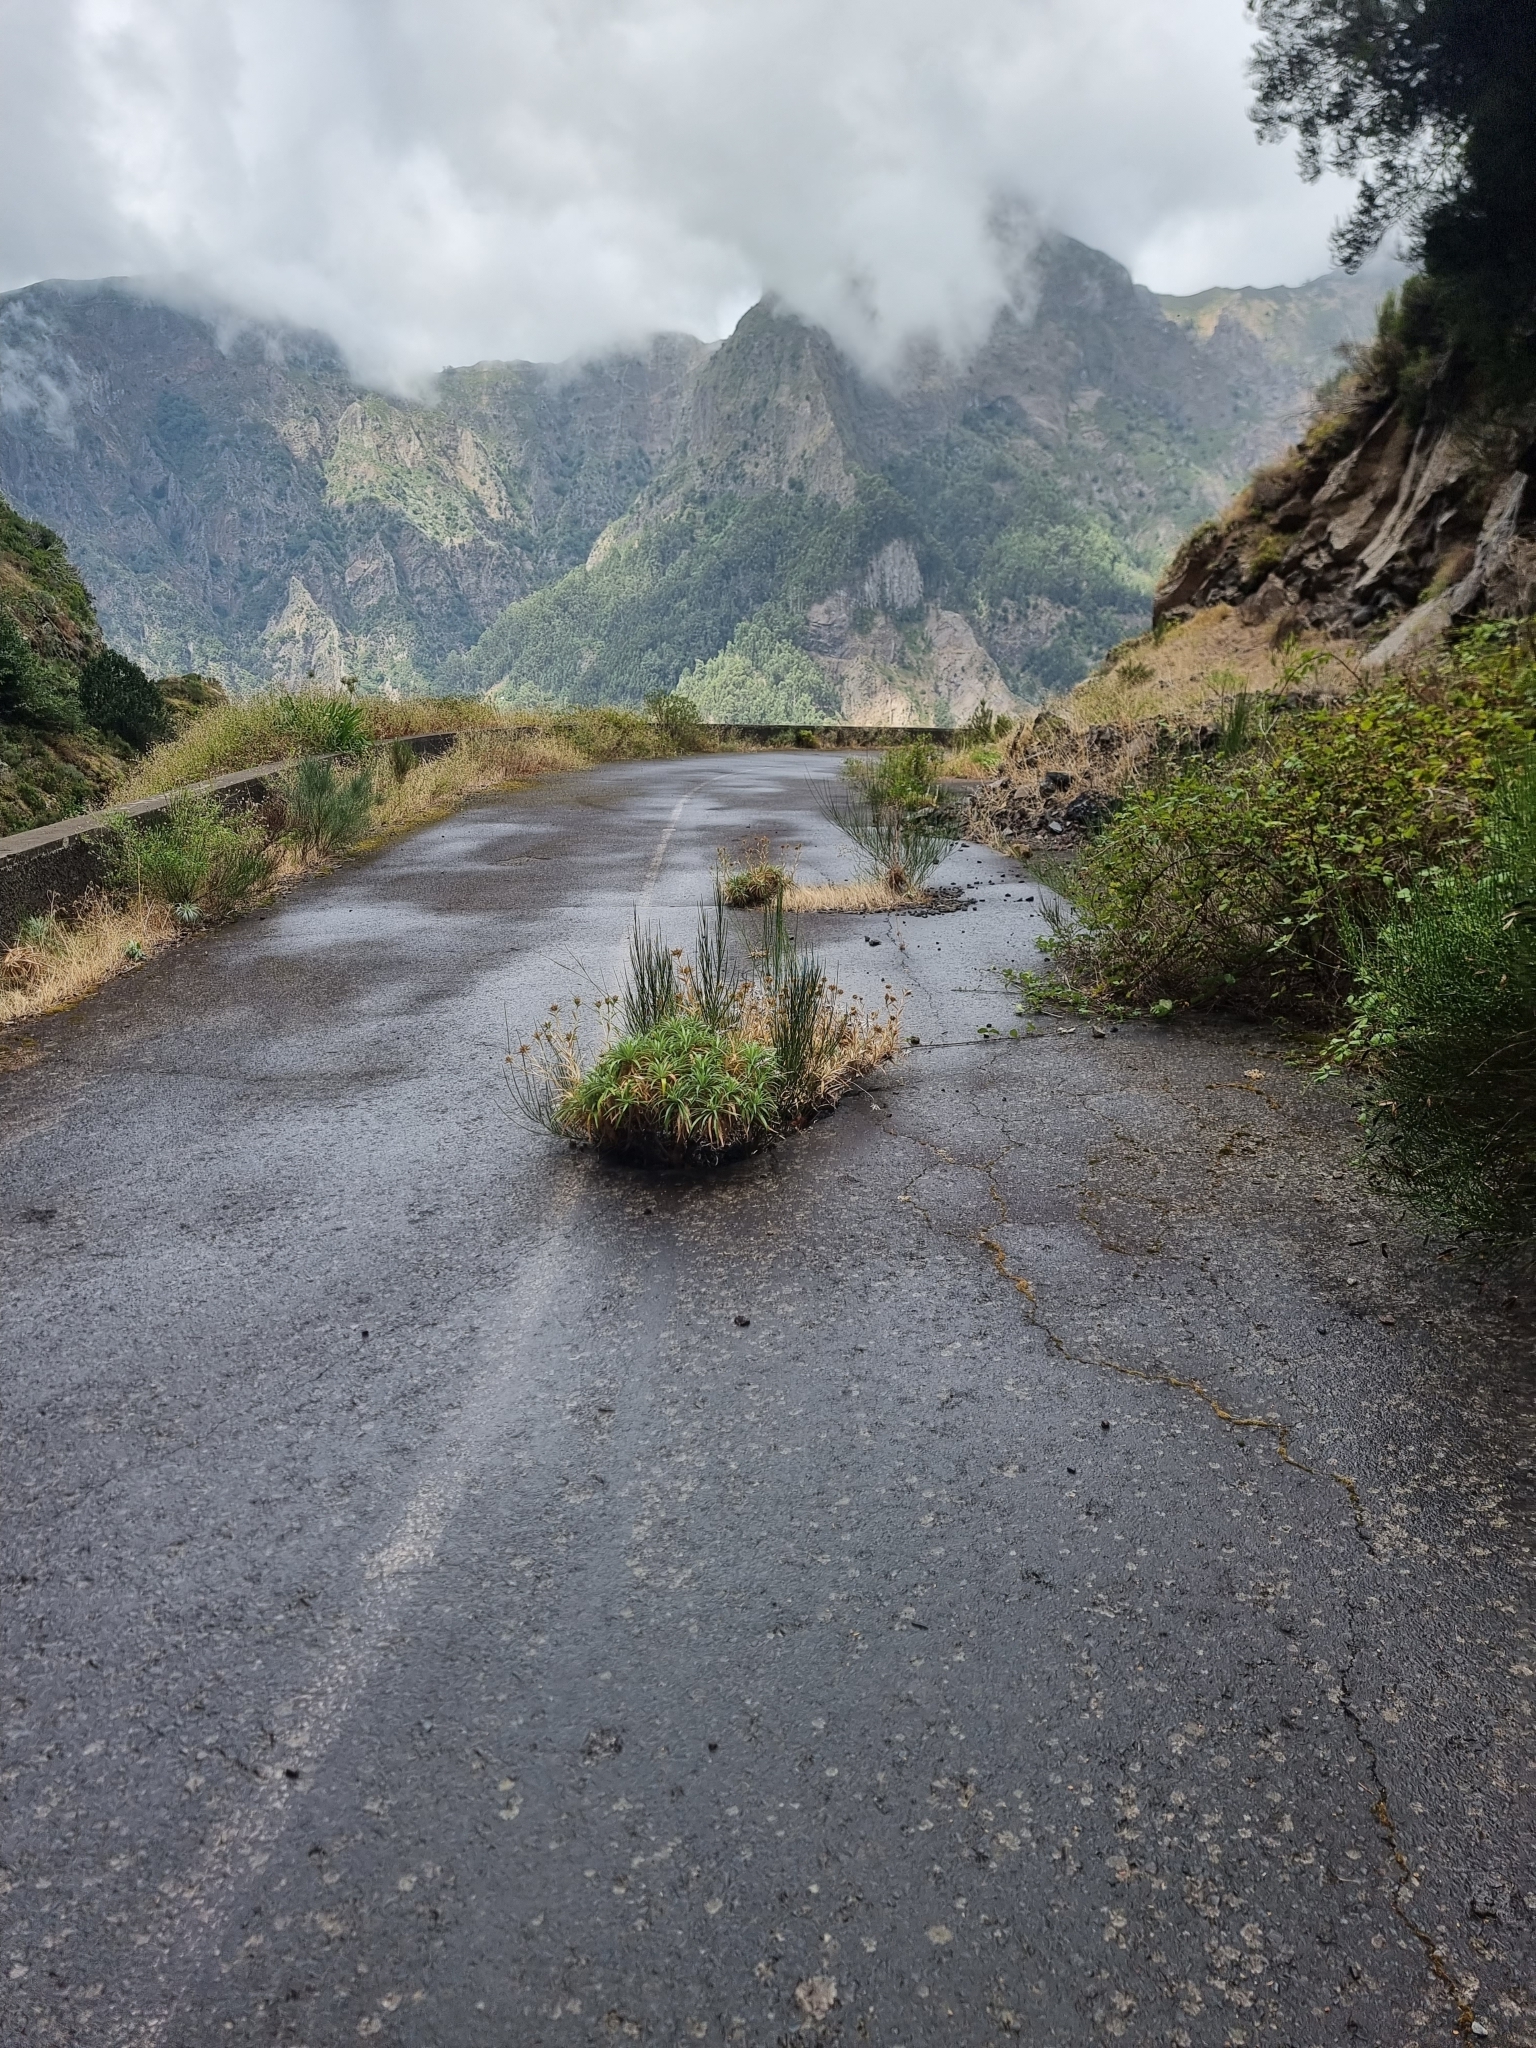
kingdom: Plantae
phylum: Tracheophyta
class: Magnoliopsida
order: Asterales
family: Asteraceae
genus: Carlina
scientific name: Carlina salicifolia
